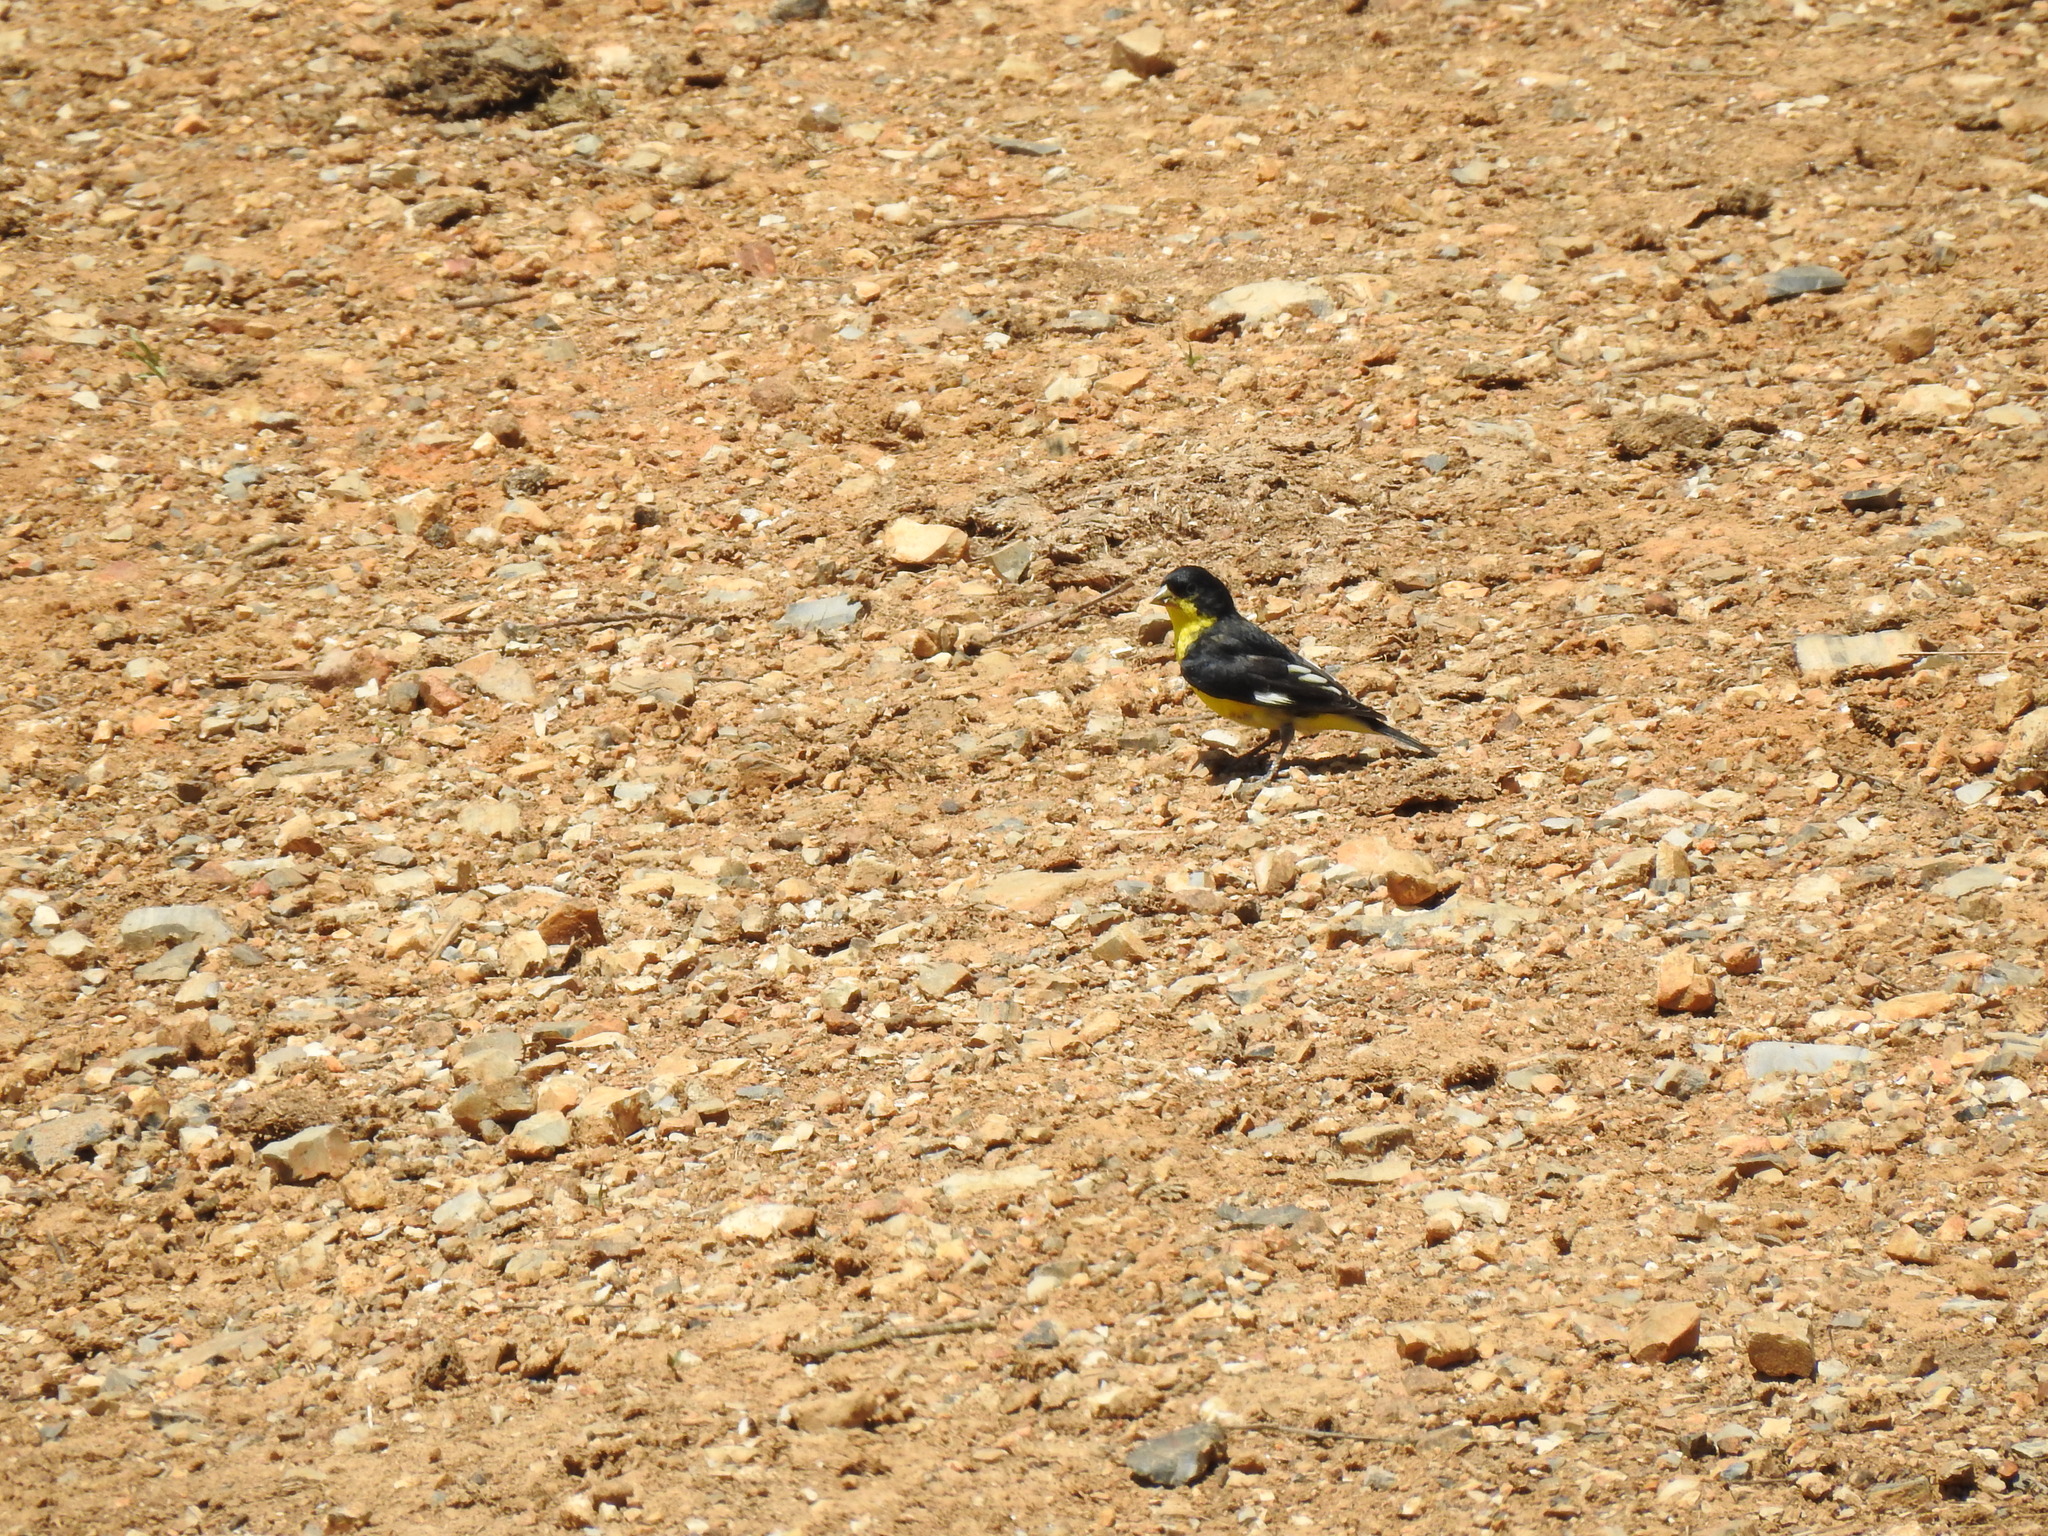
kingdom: Animalia
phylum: Chordata
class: Aves
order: Passeriformes
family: Fringillidae
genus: Spinus
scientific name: Spinus psaltria
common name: Lesser goldfinch
